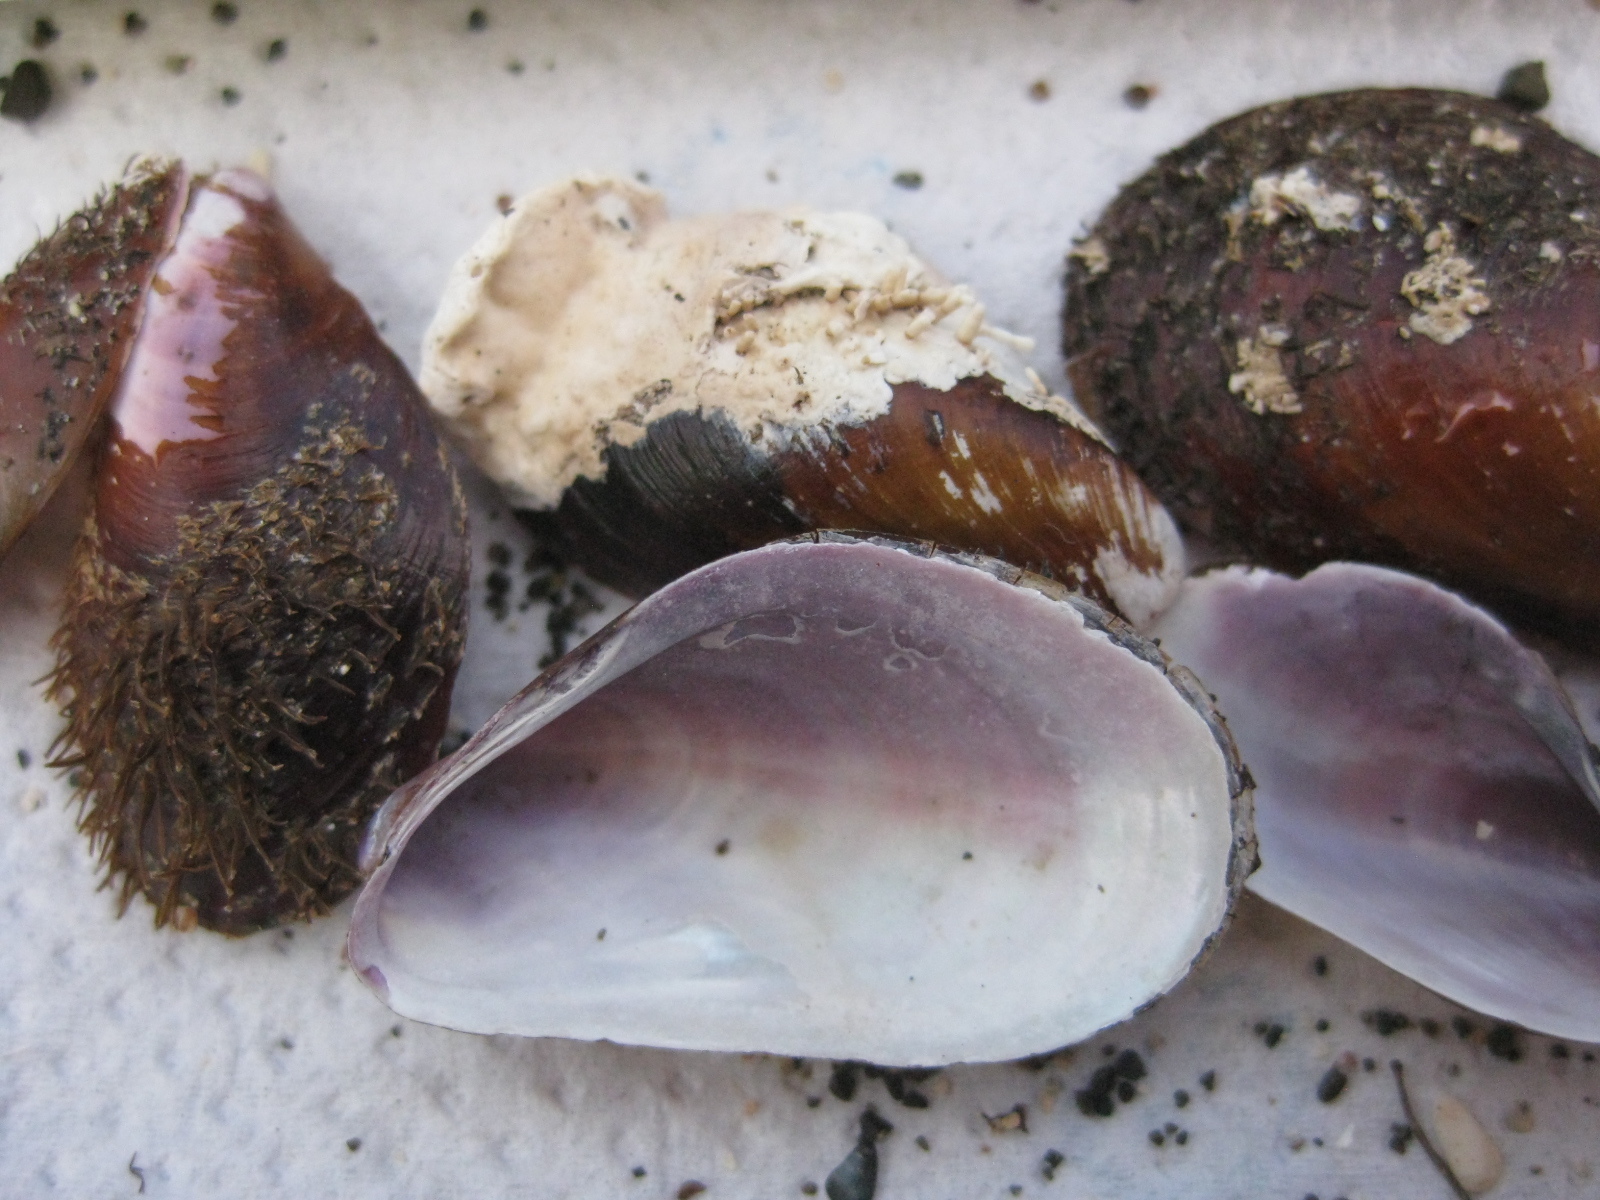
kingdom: Animalia
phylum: Mollusca
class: Bivalvia
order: Mytilida
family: Mytilidae
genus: Modiolus
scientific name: Modiolus areolatus
